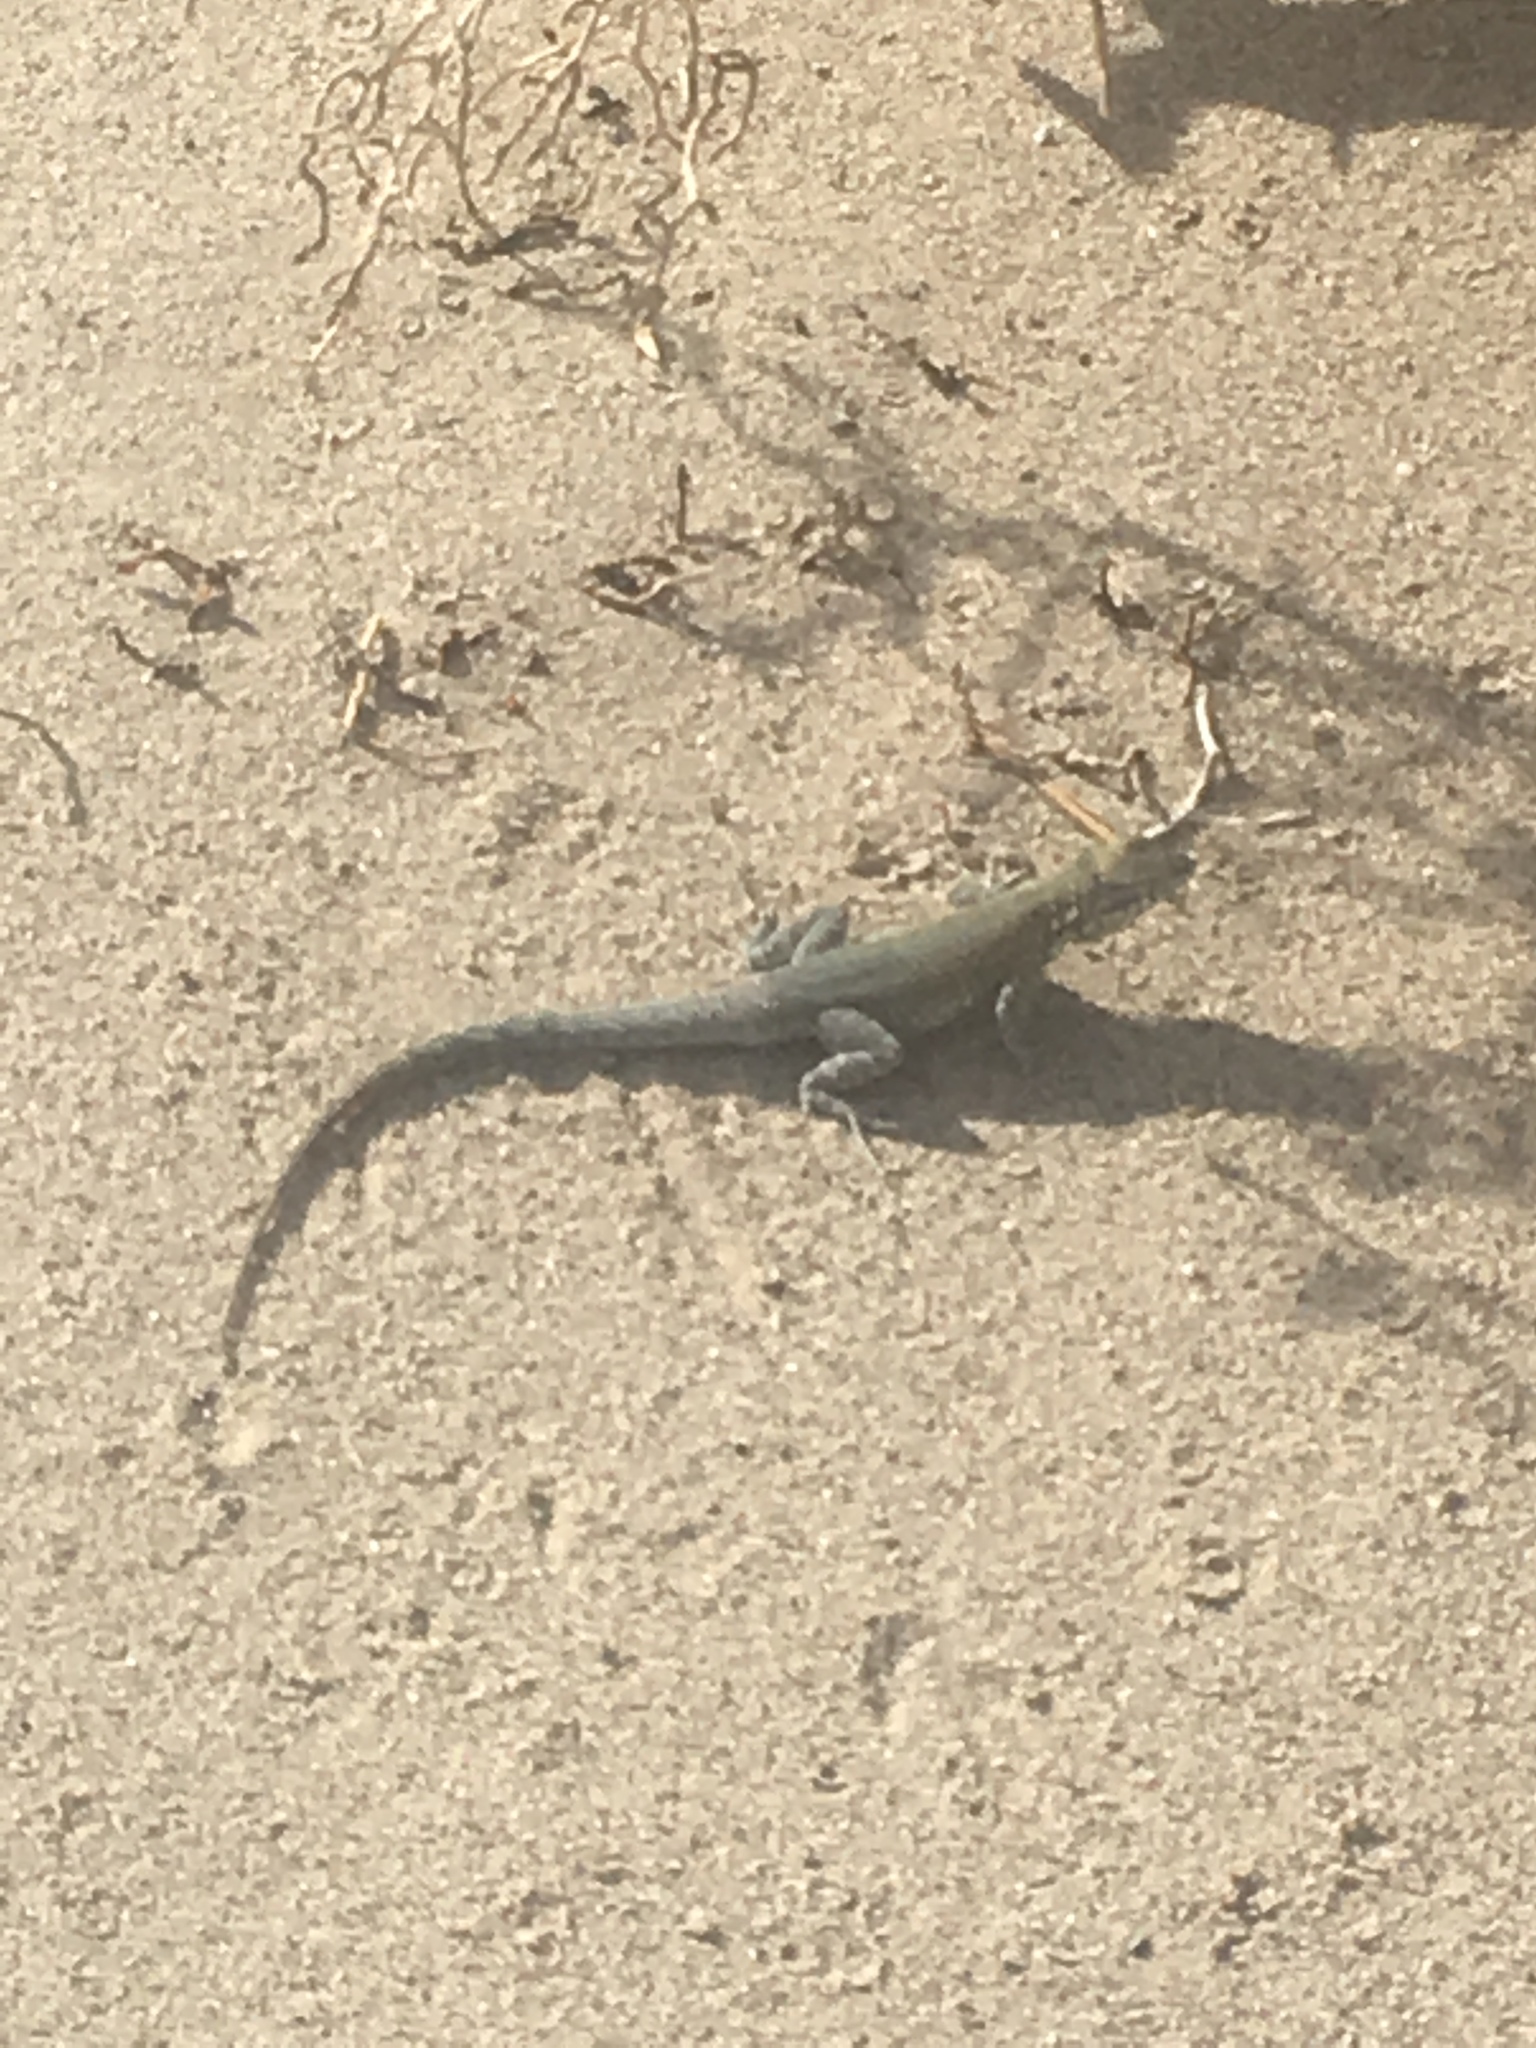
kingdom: Animalia
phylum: Chordata
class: Squamata
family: Phrynosomatidae
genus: Uta
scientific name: Uta stansburiana
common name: Side-blotched lizard
